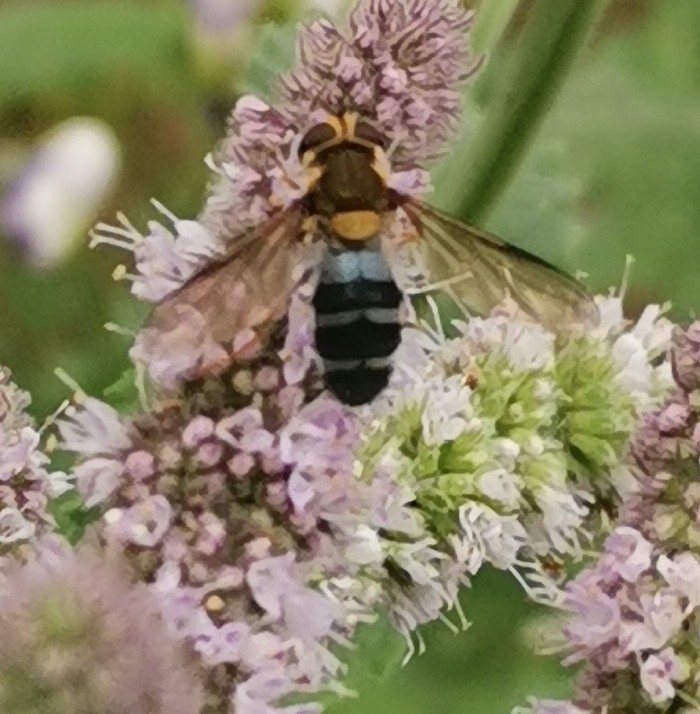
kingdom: Animalia
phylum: Arthropoda
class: Insecta
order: Diptera
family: Syrphidae
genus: Leucozona
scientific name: Leucozona glaucia
